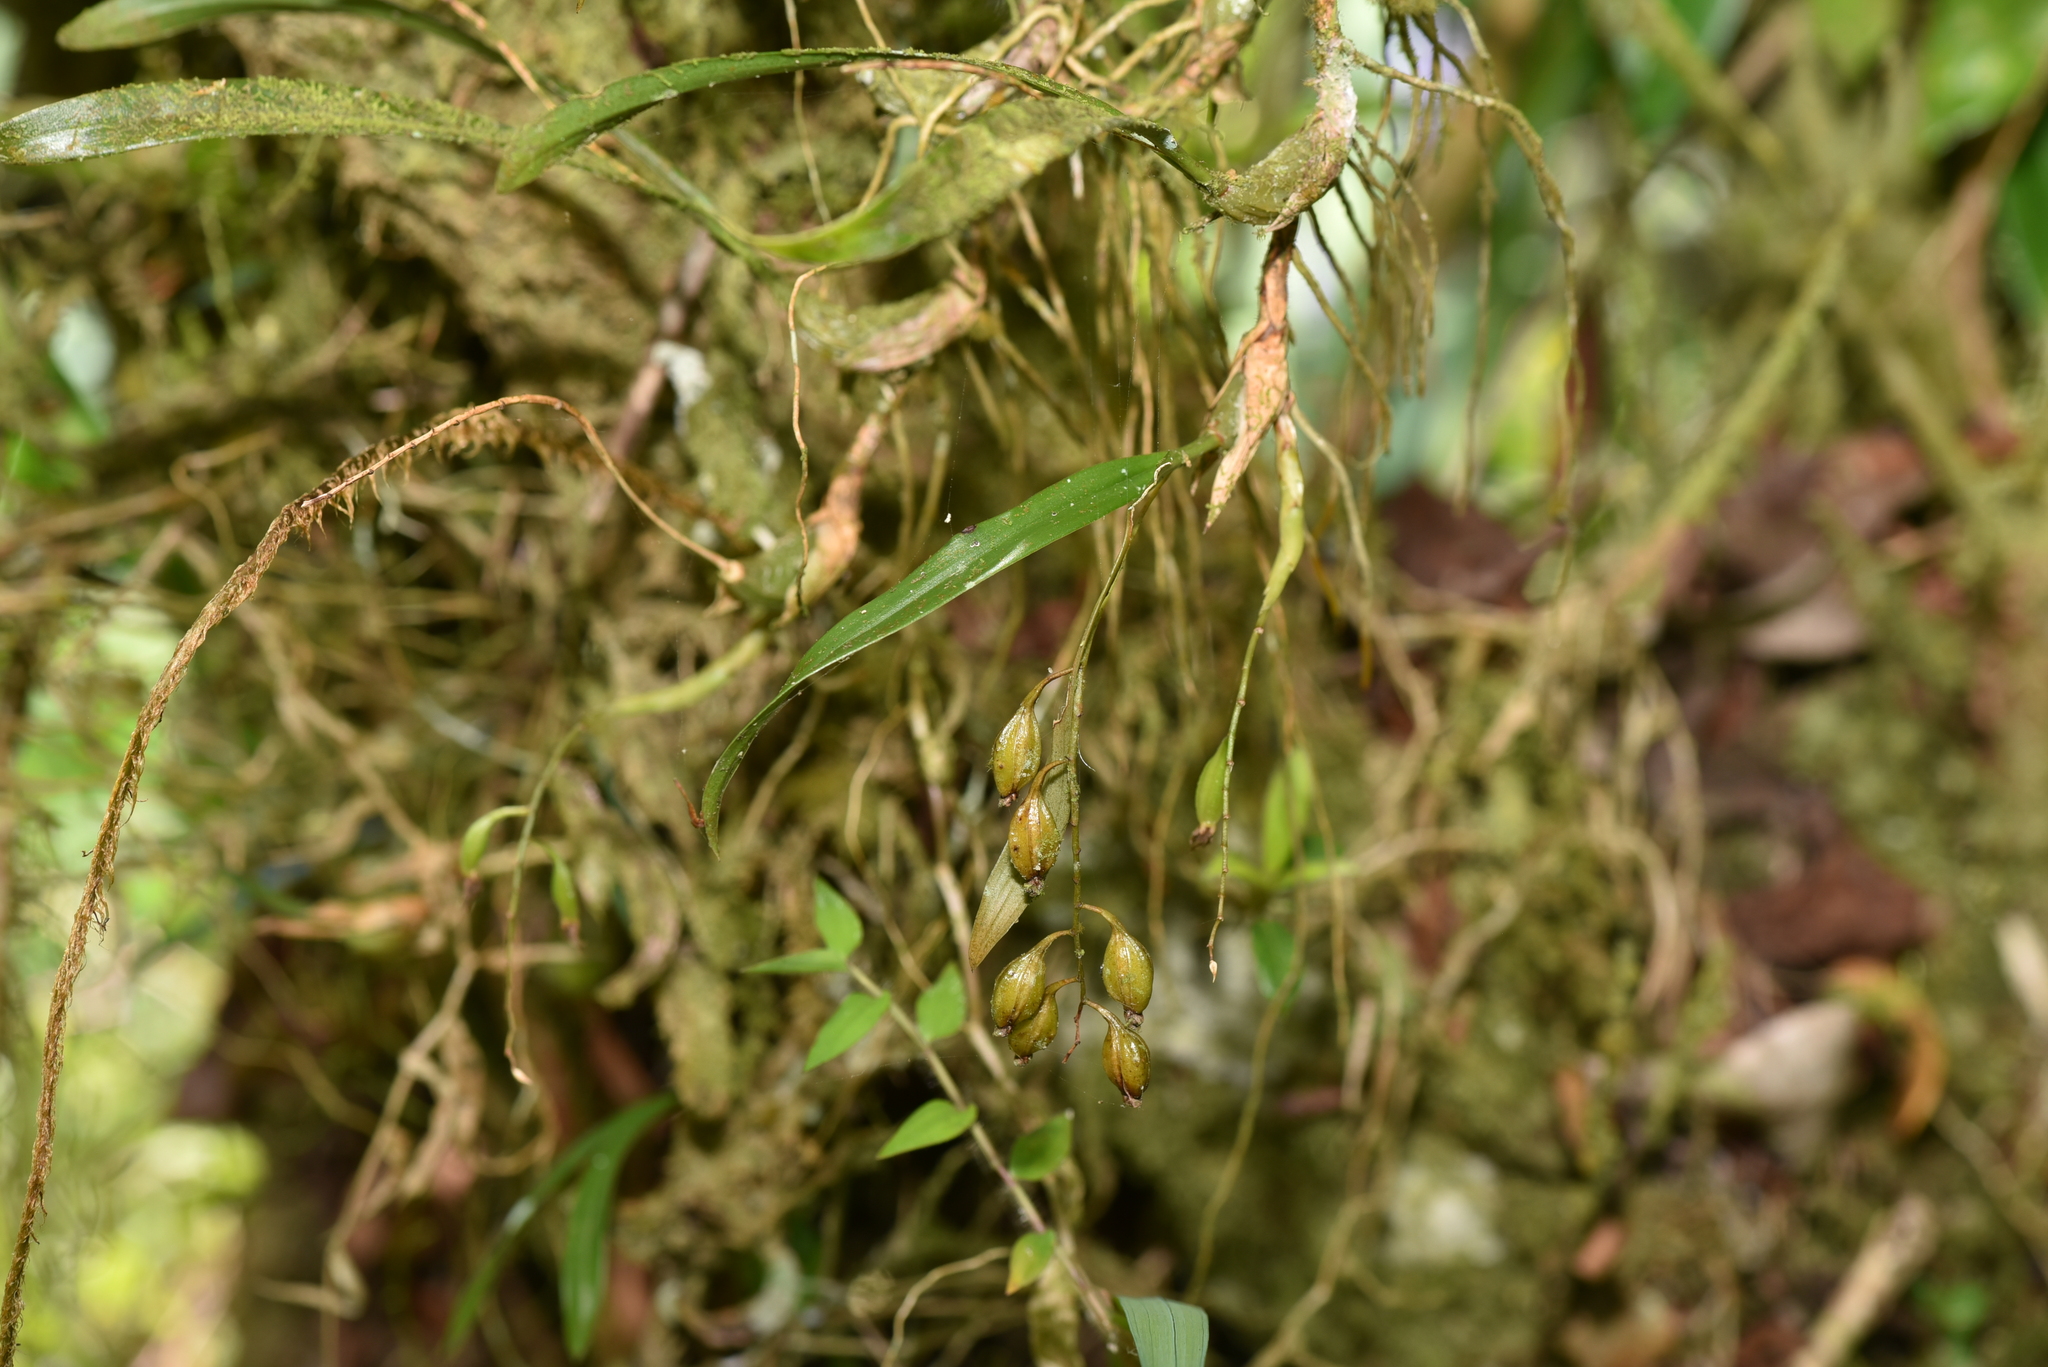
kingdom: Plantae
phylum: Tracheophyta
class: Liliopsida
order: Asparagales
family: Orchidaceae
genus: Coelogyne
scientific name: Coelogyne cantonensis
